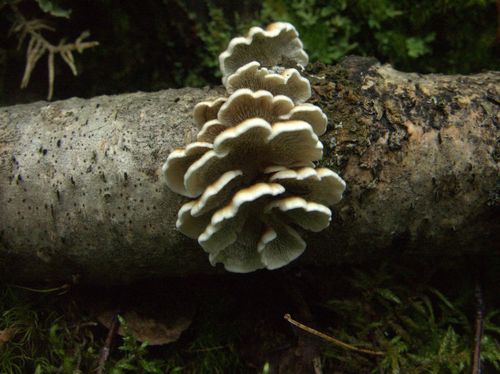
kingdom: Fungi
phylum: Basidiomycota
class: Agaricomycetes
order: Amylocorticiales
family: Amylocorticiaceae
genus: Plicaturopsis
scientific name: Plicaturopsis crispa
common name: Crimped gill
